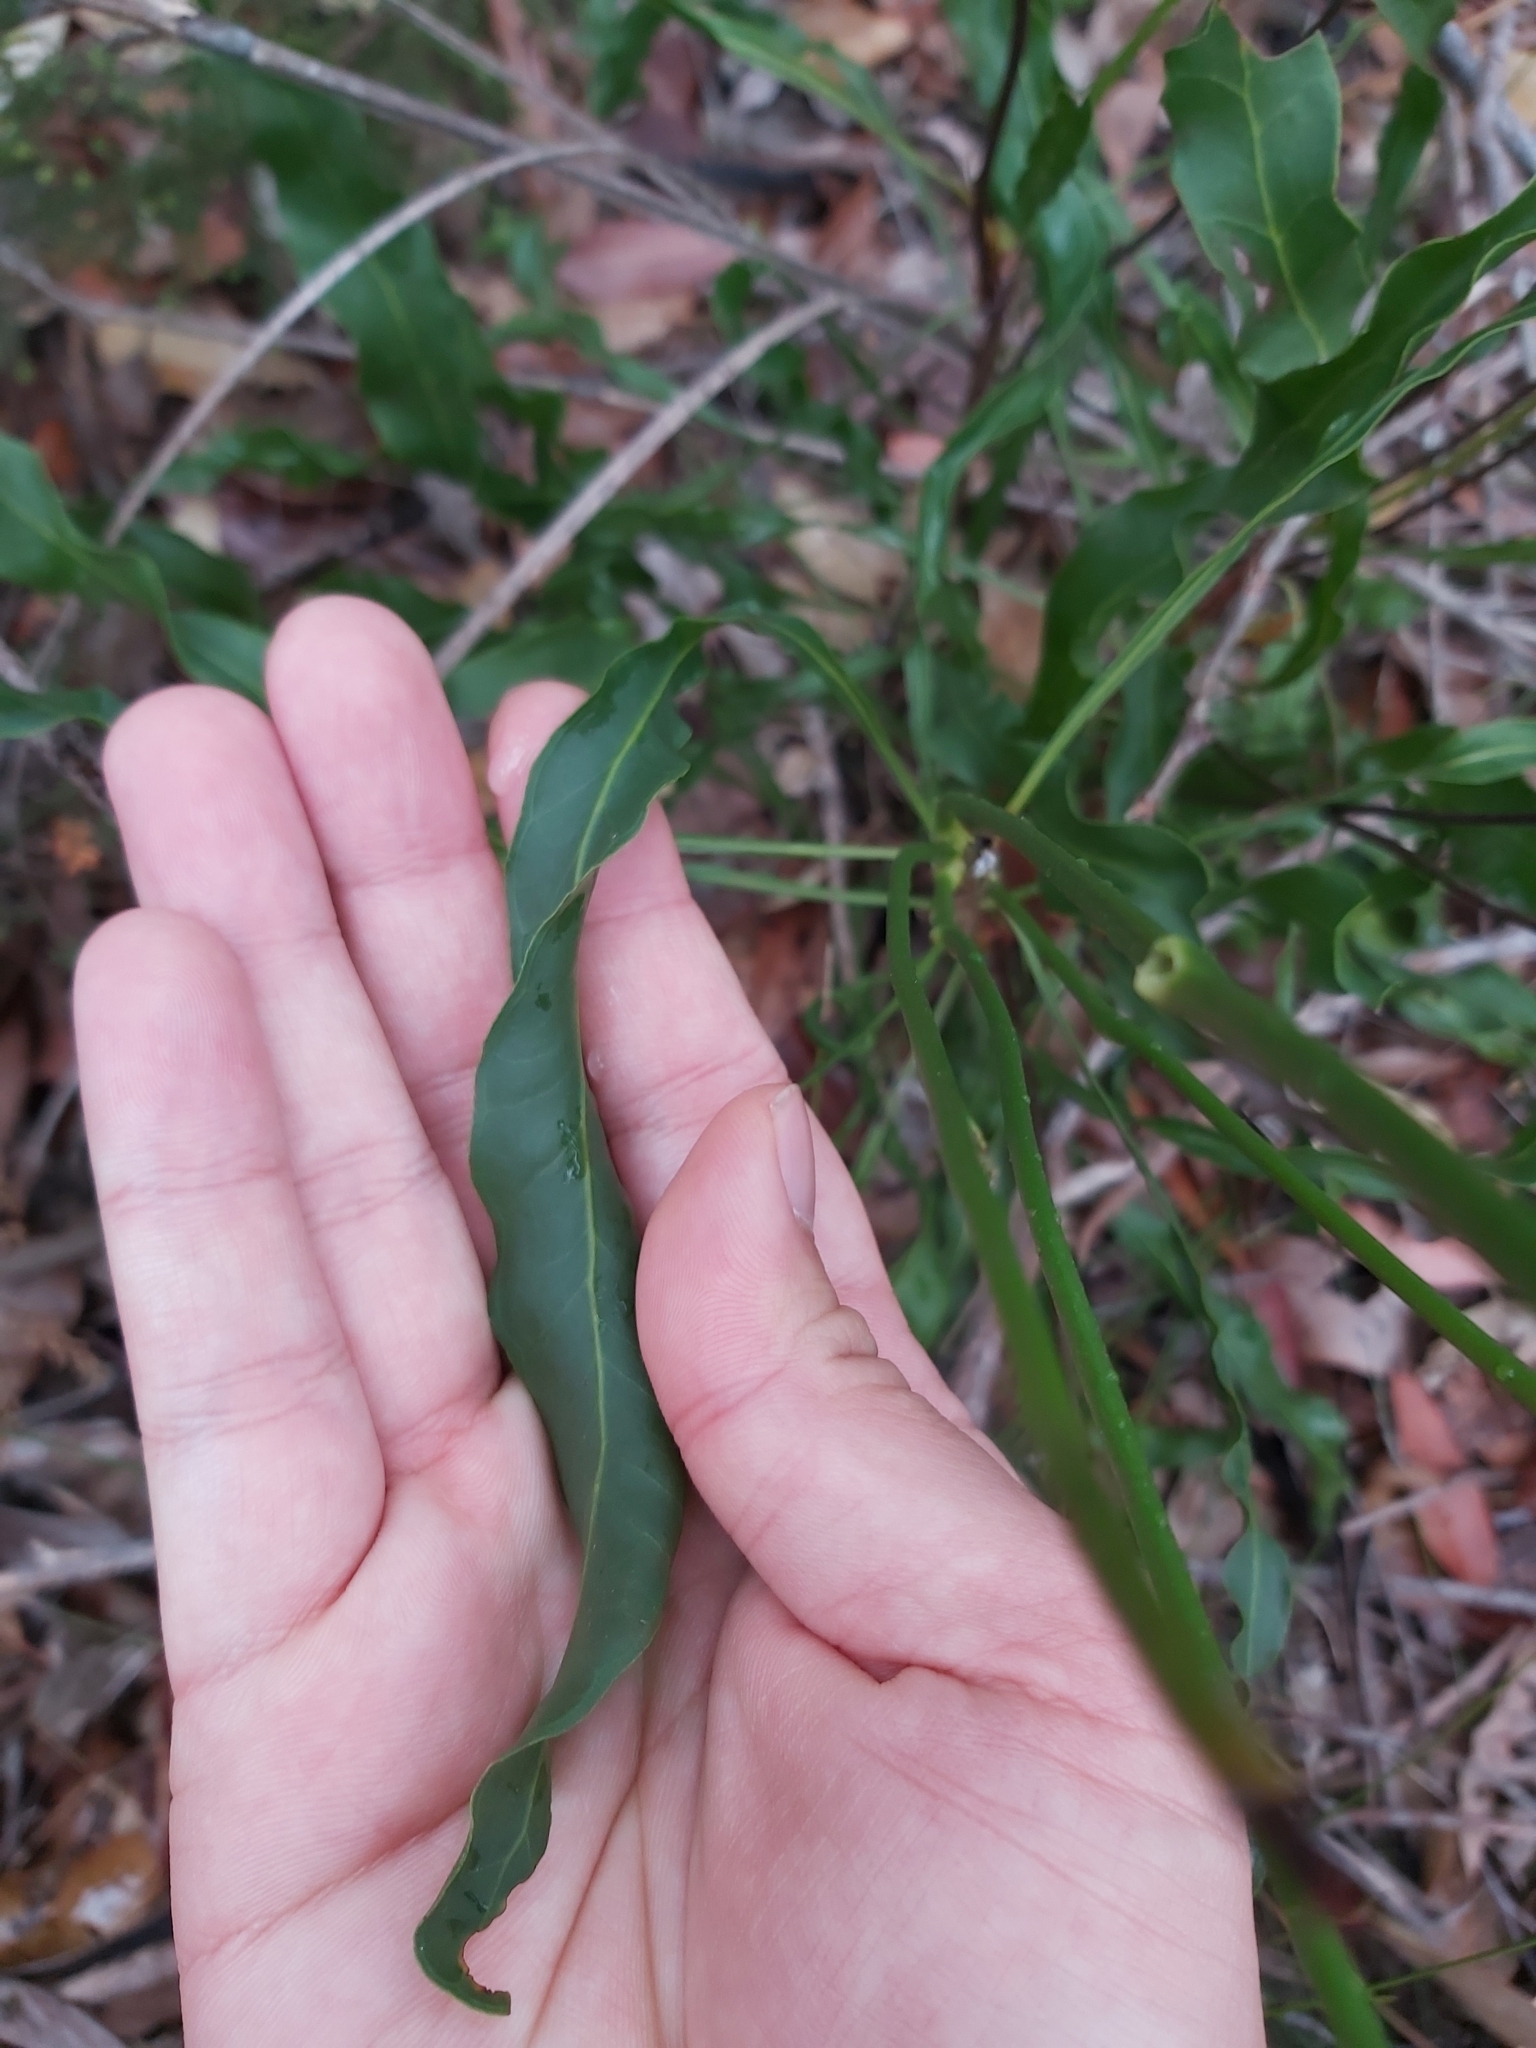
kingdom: Plantae
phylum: Tracheophyta
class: Magnoliopsida
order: Proteales
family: Proteaceae
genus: Conospermum
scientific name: Conospermum longifolium
